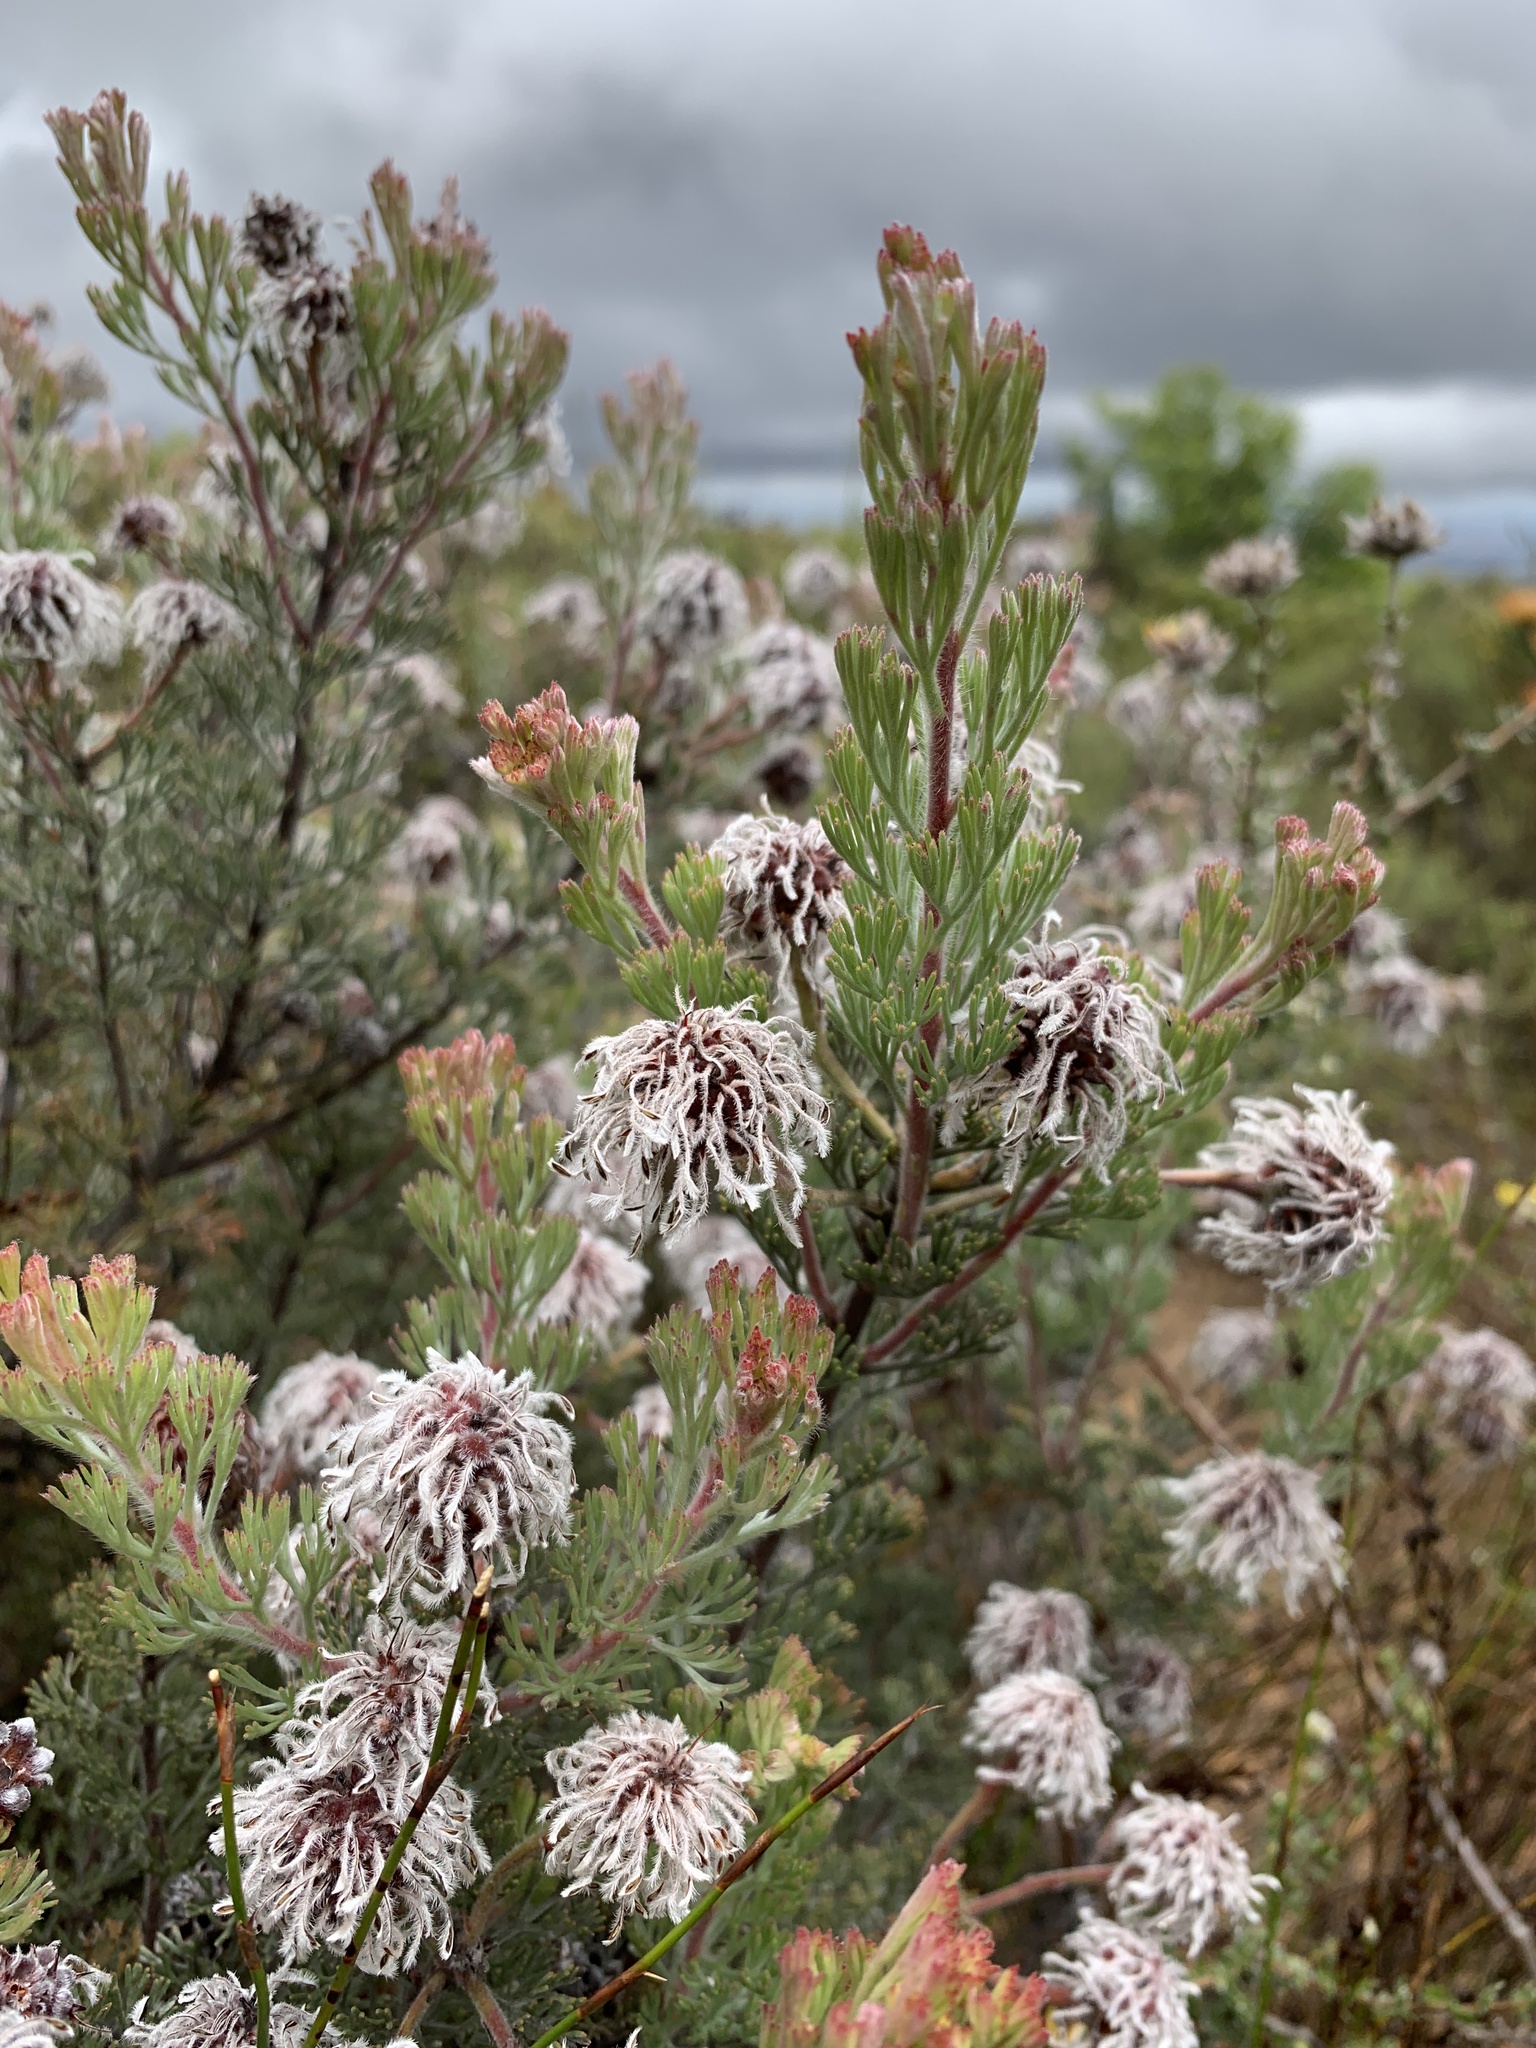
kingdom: Plantae
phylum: Tracheophyta
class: Magnoliopsida
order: Proteales
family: Proteaceae
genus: Serruria
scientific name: Serruria aitonii
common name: Marshmallow spiderhead
